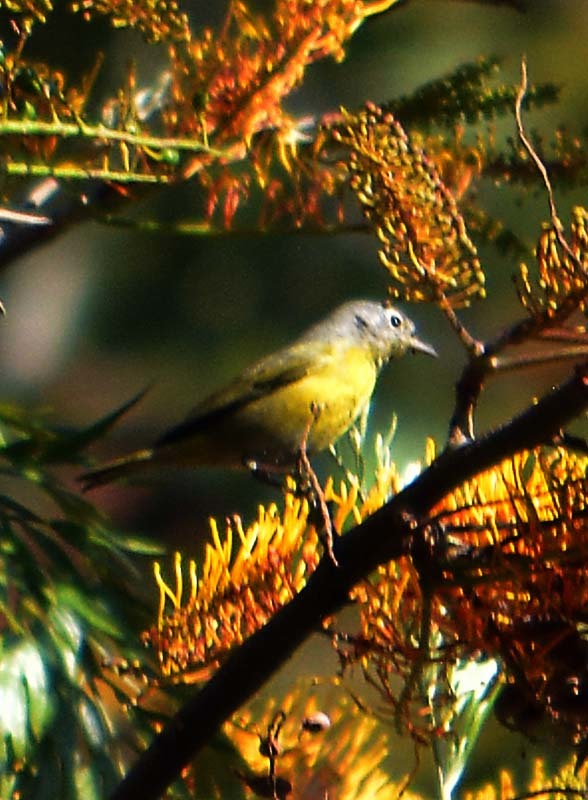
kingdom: Animalia
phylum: Chordata
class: Aves
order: Passeriformes
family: Parulidae
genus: Leiothlypis
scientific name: Leiothlypis ruficapilla
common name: Nashville warbler
